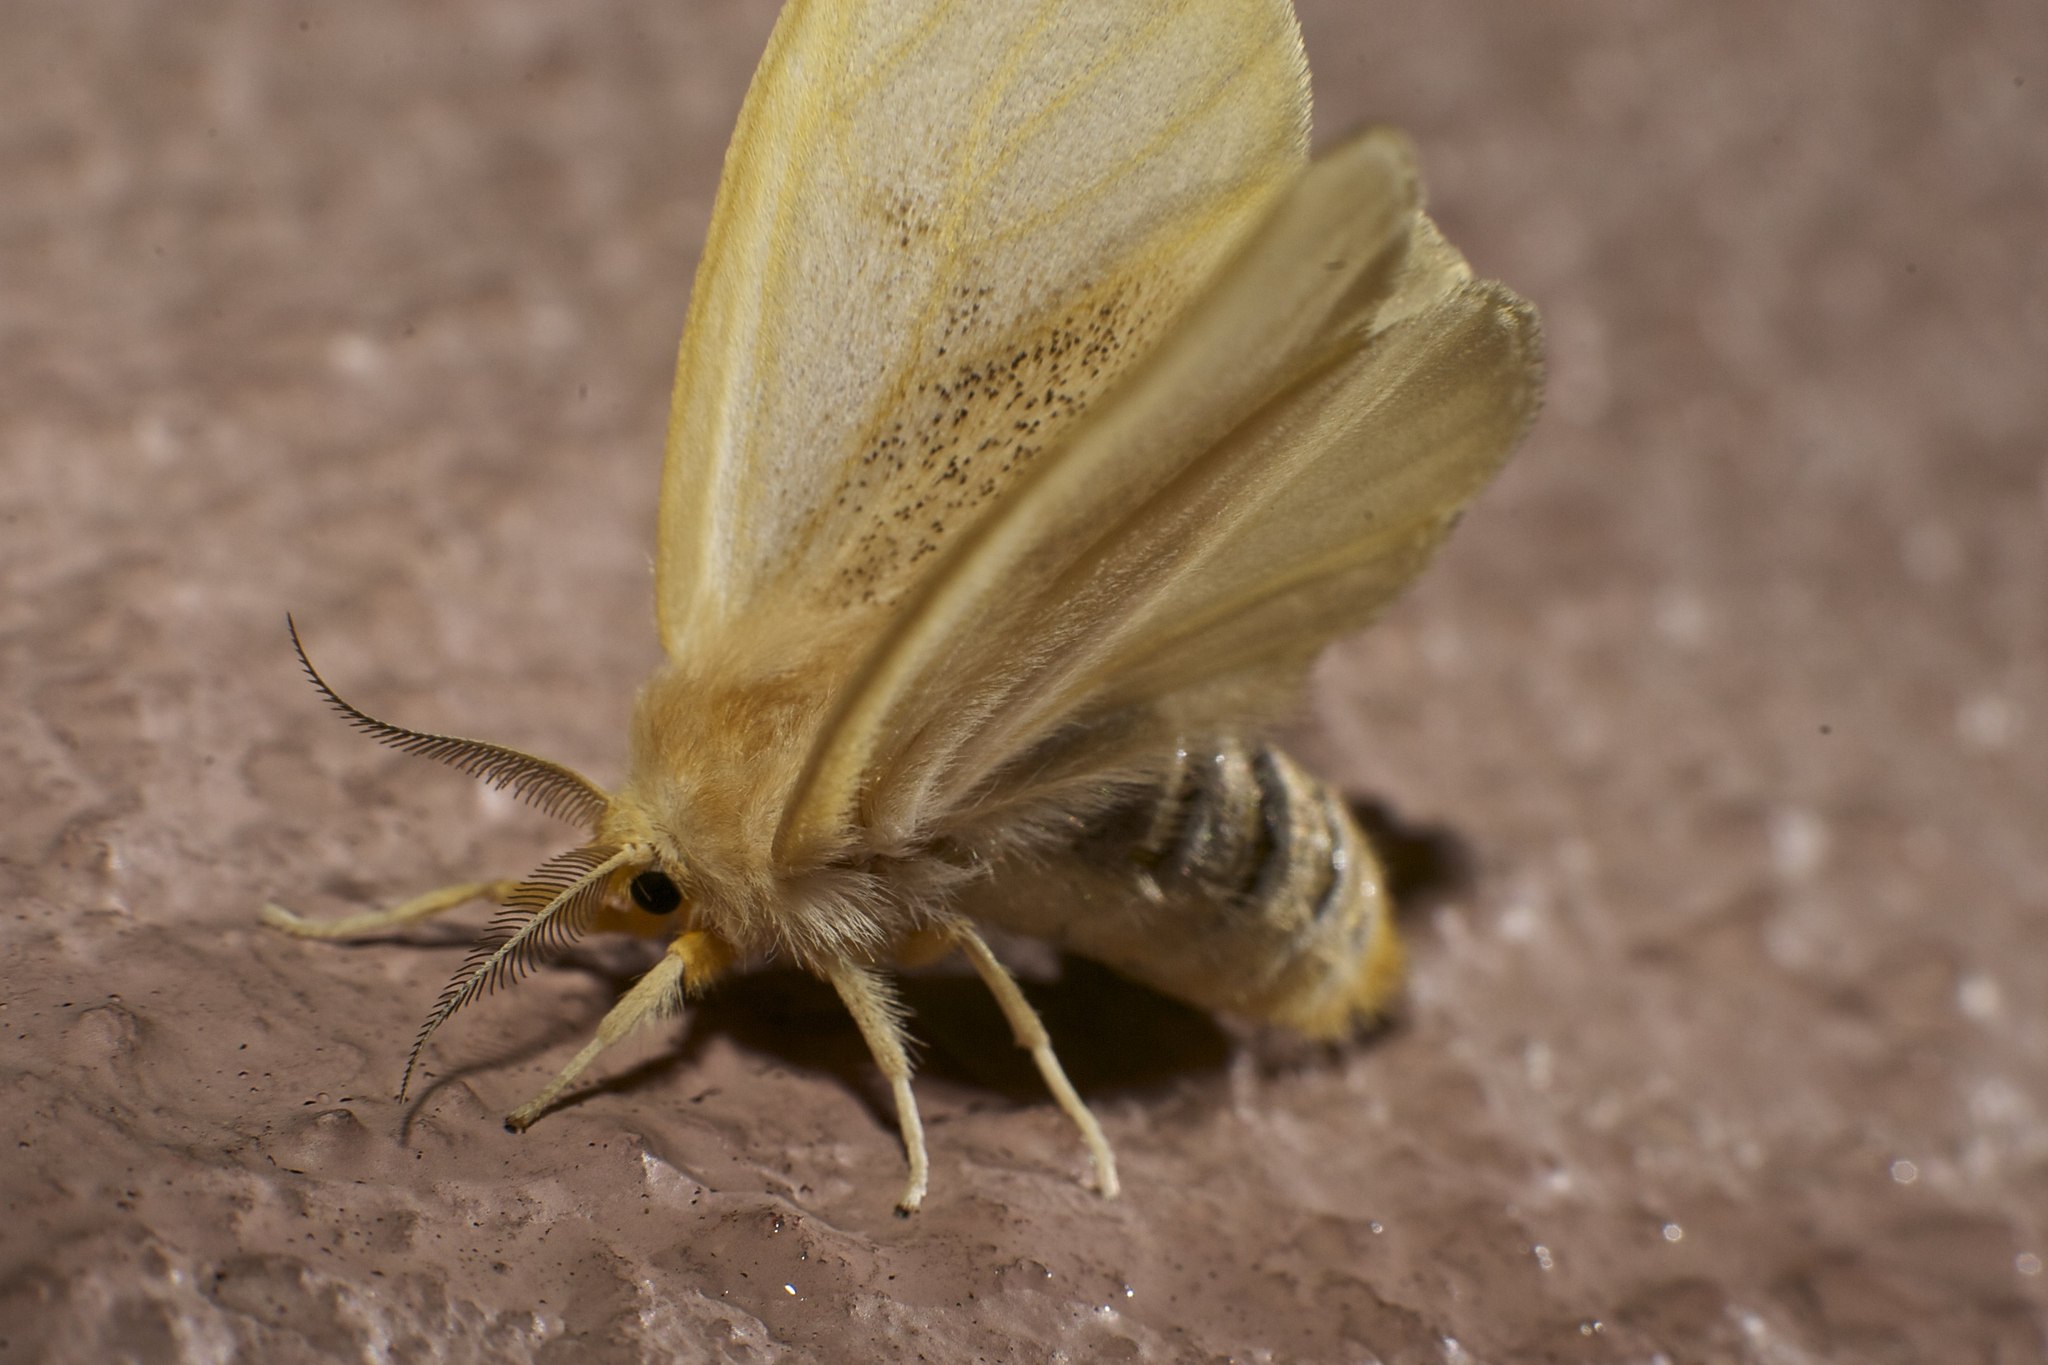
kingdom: Animalia
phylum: Arthropoda
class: Insecta
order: Lepidoptera
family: Erebidae
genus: Perina
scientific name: Perina nuda
